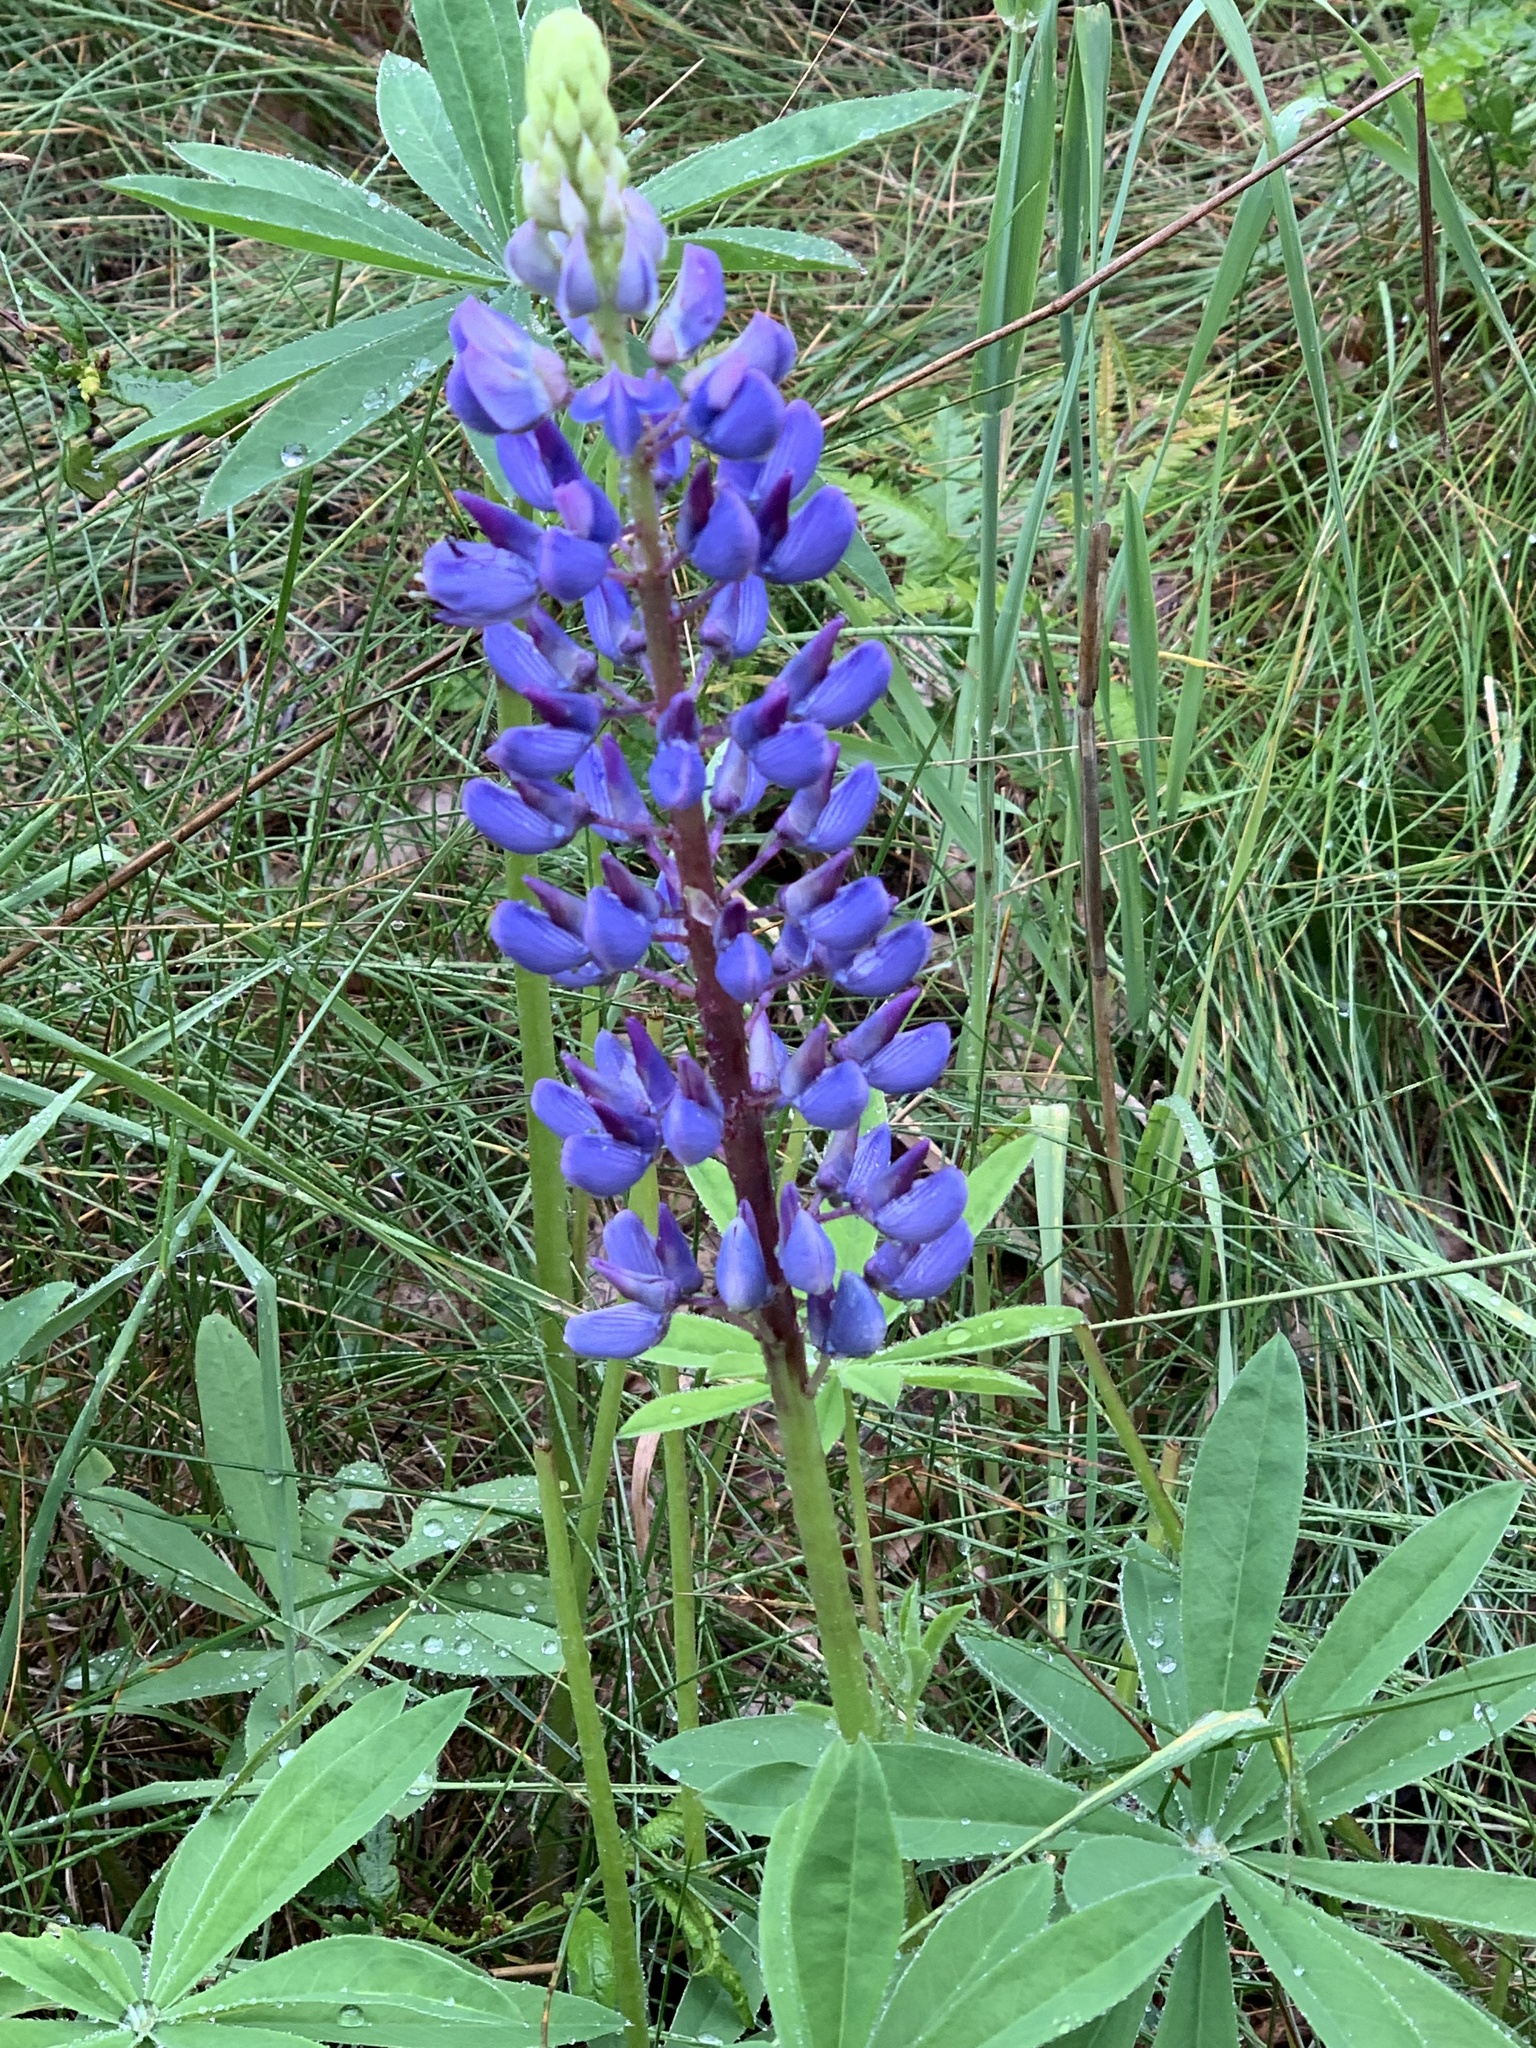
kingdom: Plantae
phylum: Tracheophyta
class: Magnoliopsida
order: Fabales
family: Fabaceae
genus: Lupinus
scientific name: Lupinus polyphyllus
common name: Garden lupin
